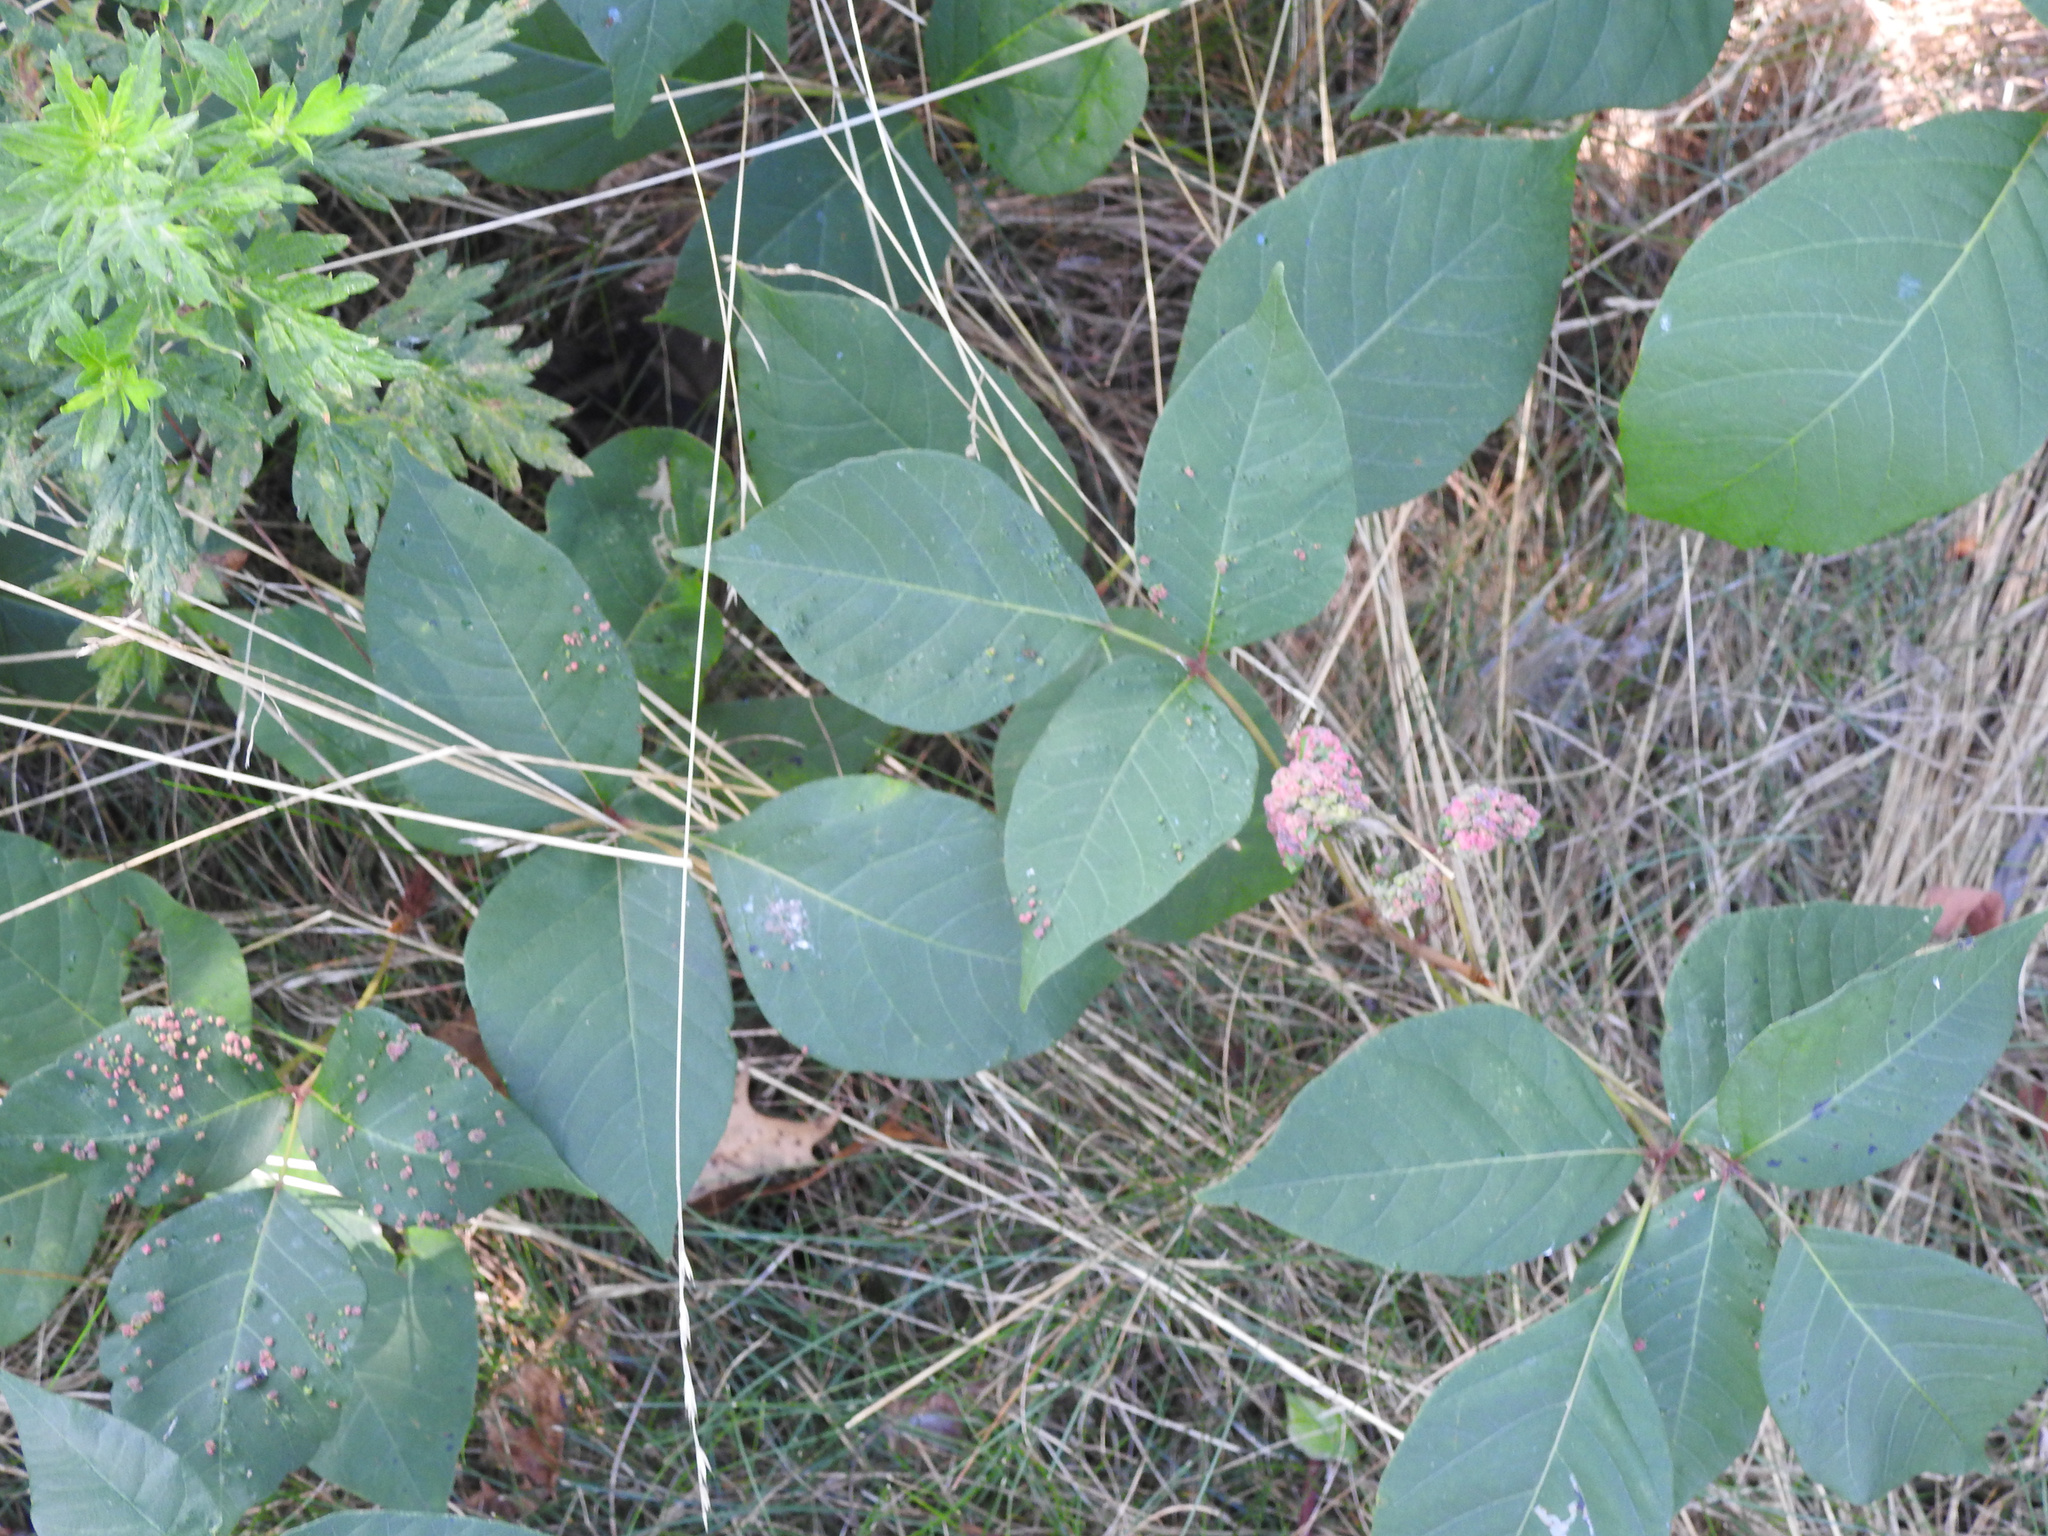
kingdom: Plantae
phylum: Tracheophyta
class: Magnoliopsida
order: Sapindales
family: Anacardiaceae
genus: Toxicodendron
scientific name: Toxicodendron radicans
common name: Poison ivy
